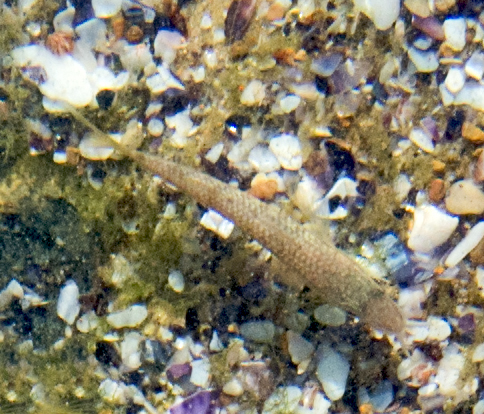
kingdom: Animalia
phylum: Chordata
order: Perciformes
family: Mullidae
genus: Mullus
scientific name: Mullus
